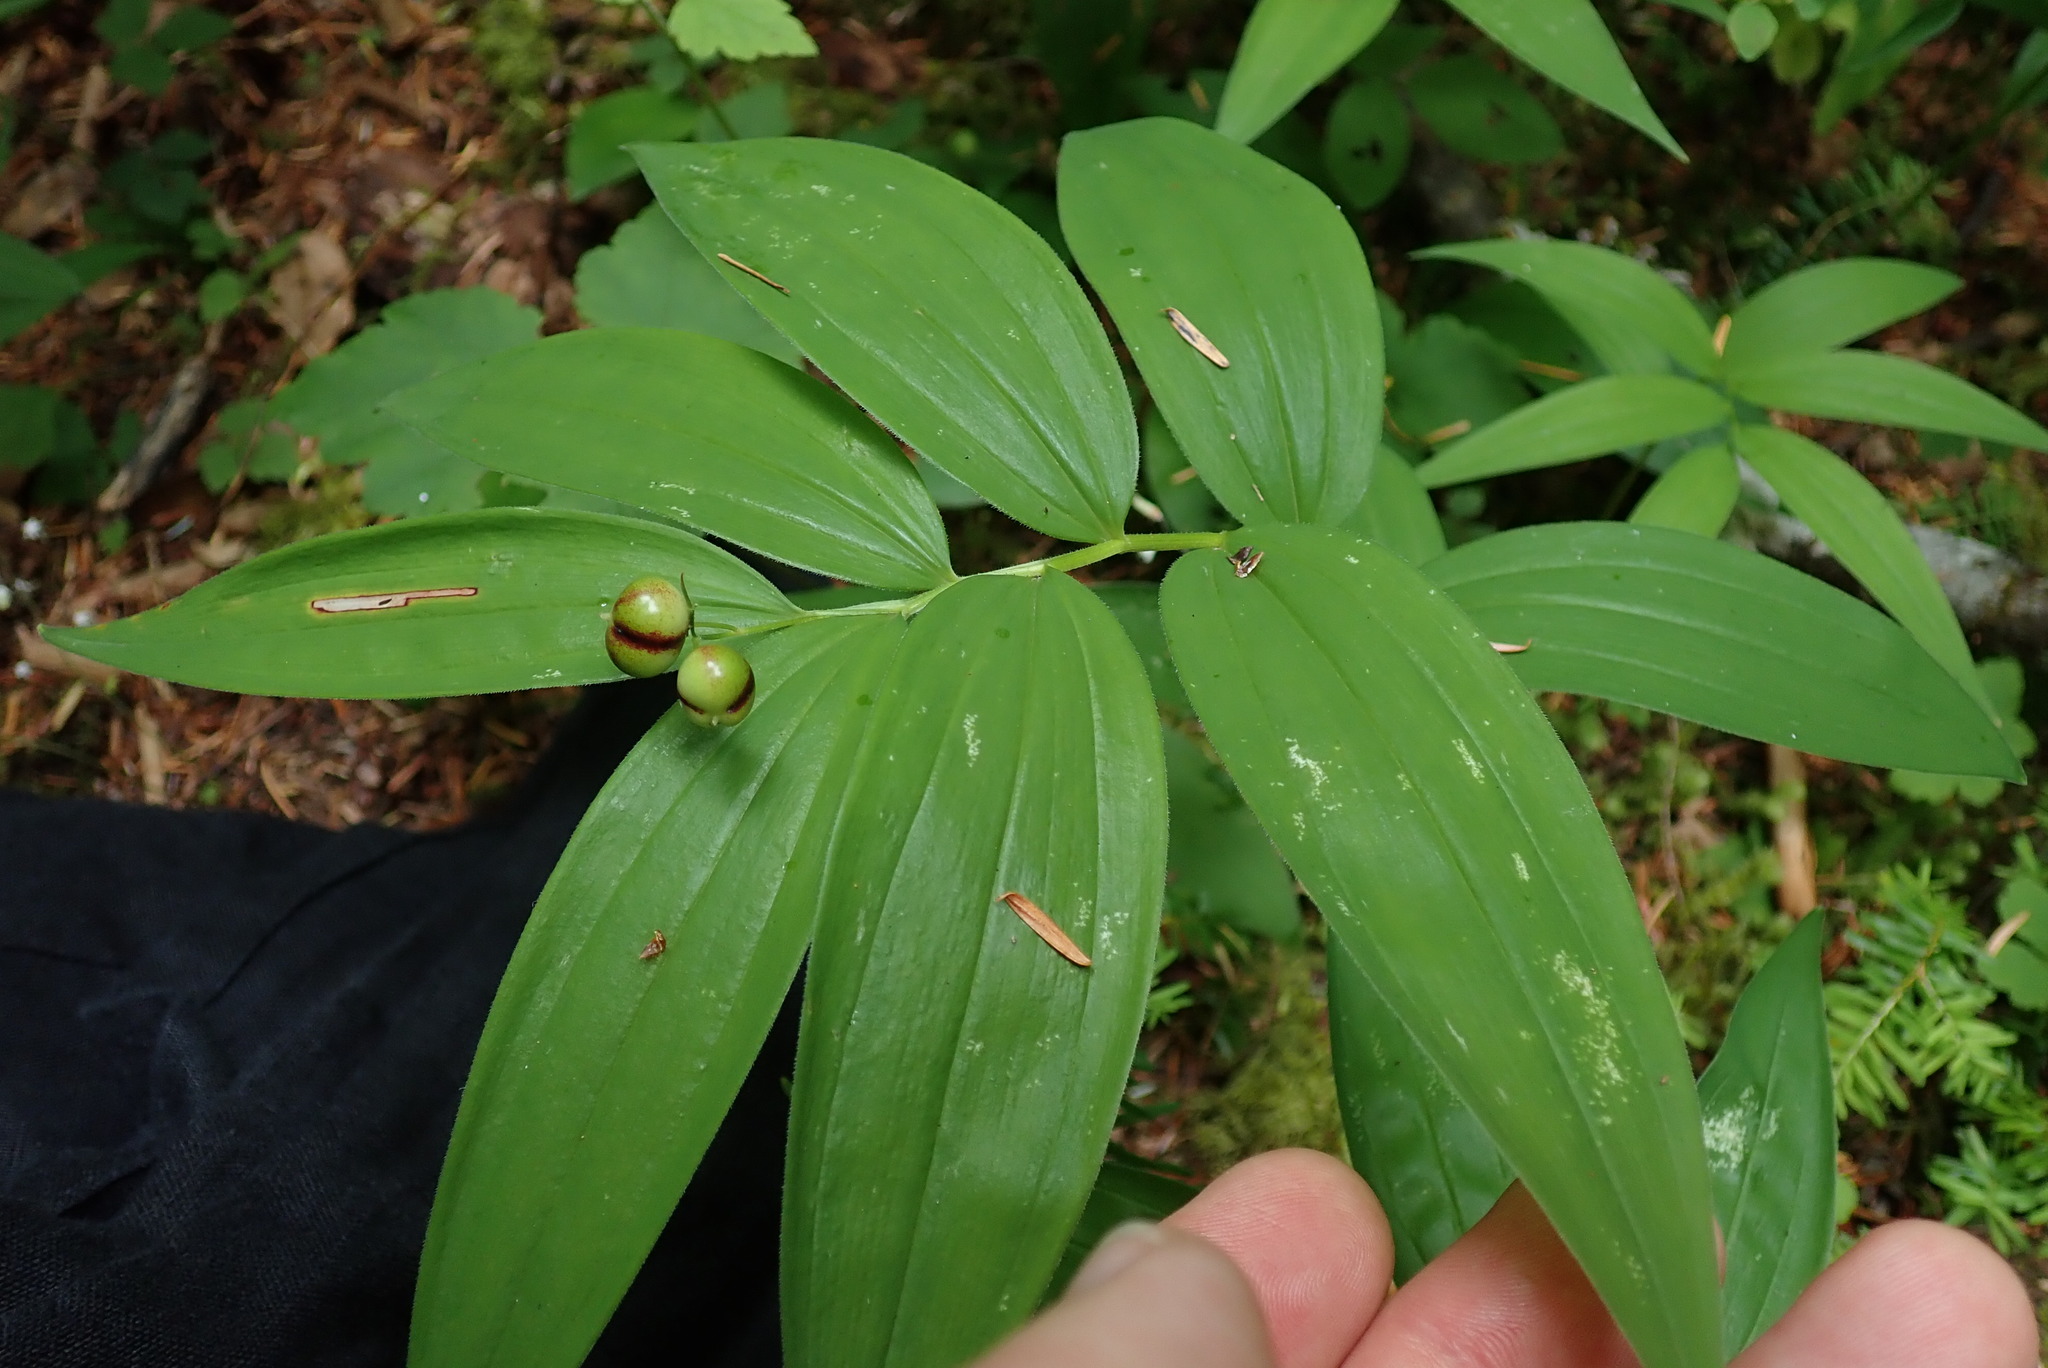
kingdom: Plantae
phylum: Tracheophyta
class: Liliopsida
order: Asparagales
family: Asparagaceae
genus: Maianthemum
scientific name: Maianthemum stellatum
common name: Little false solomon's seal
